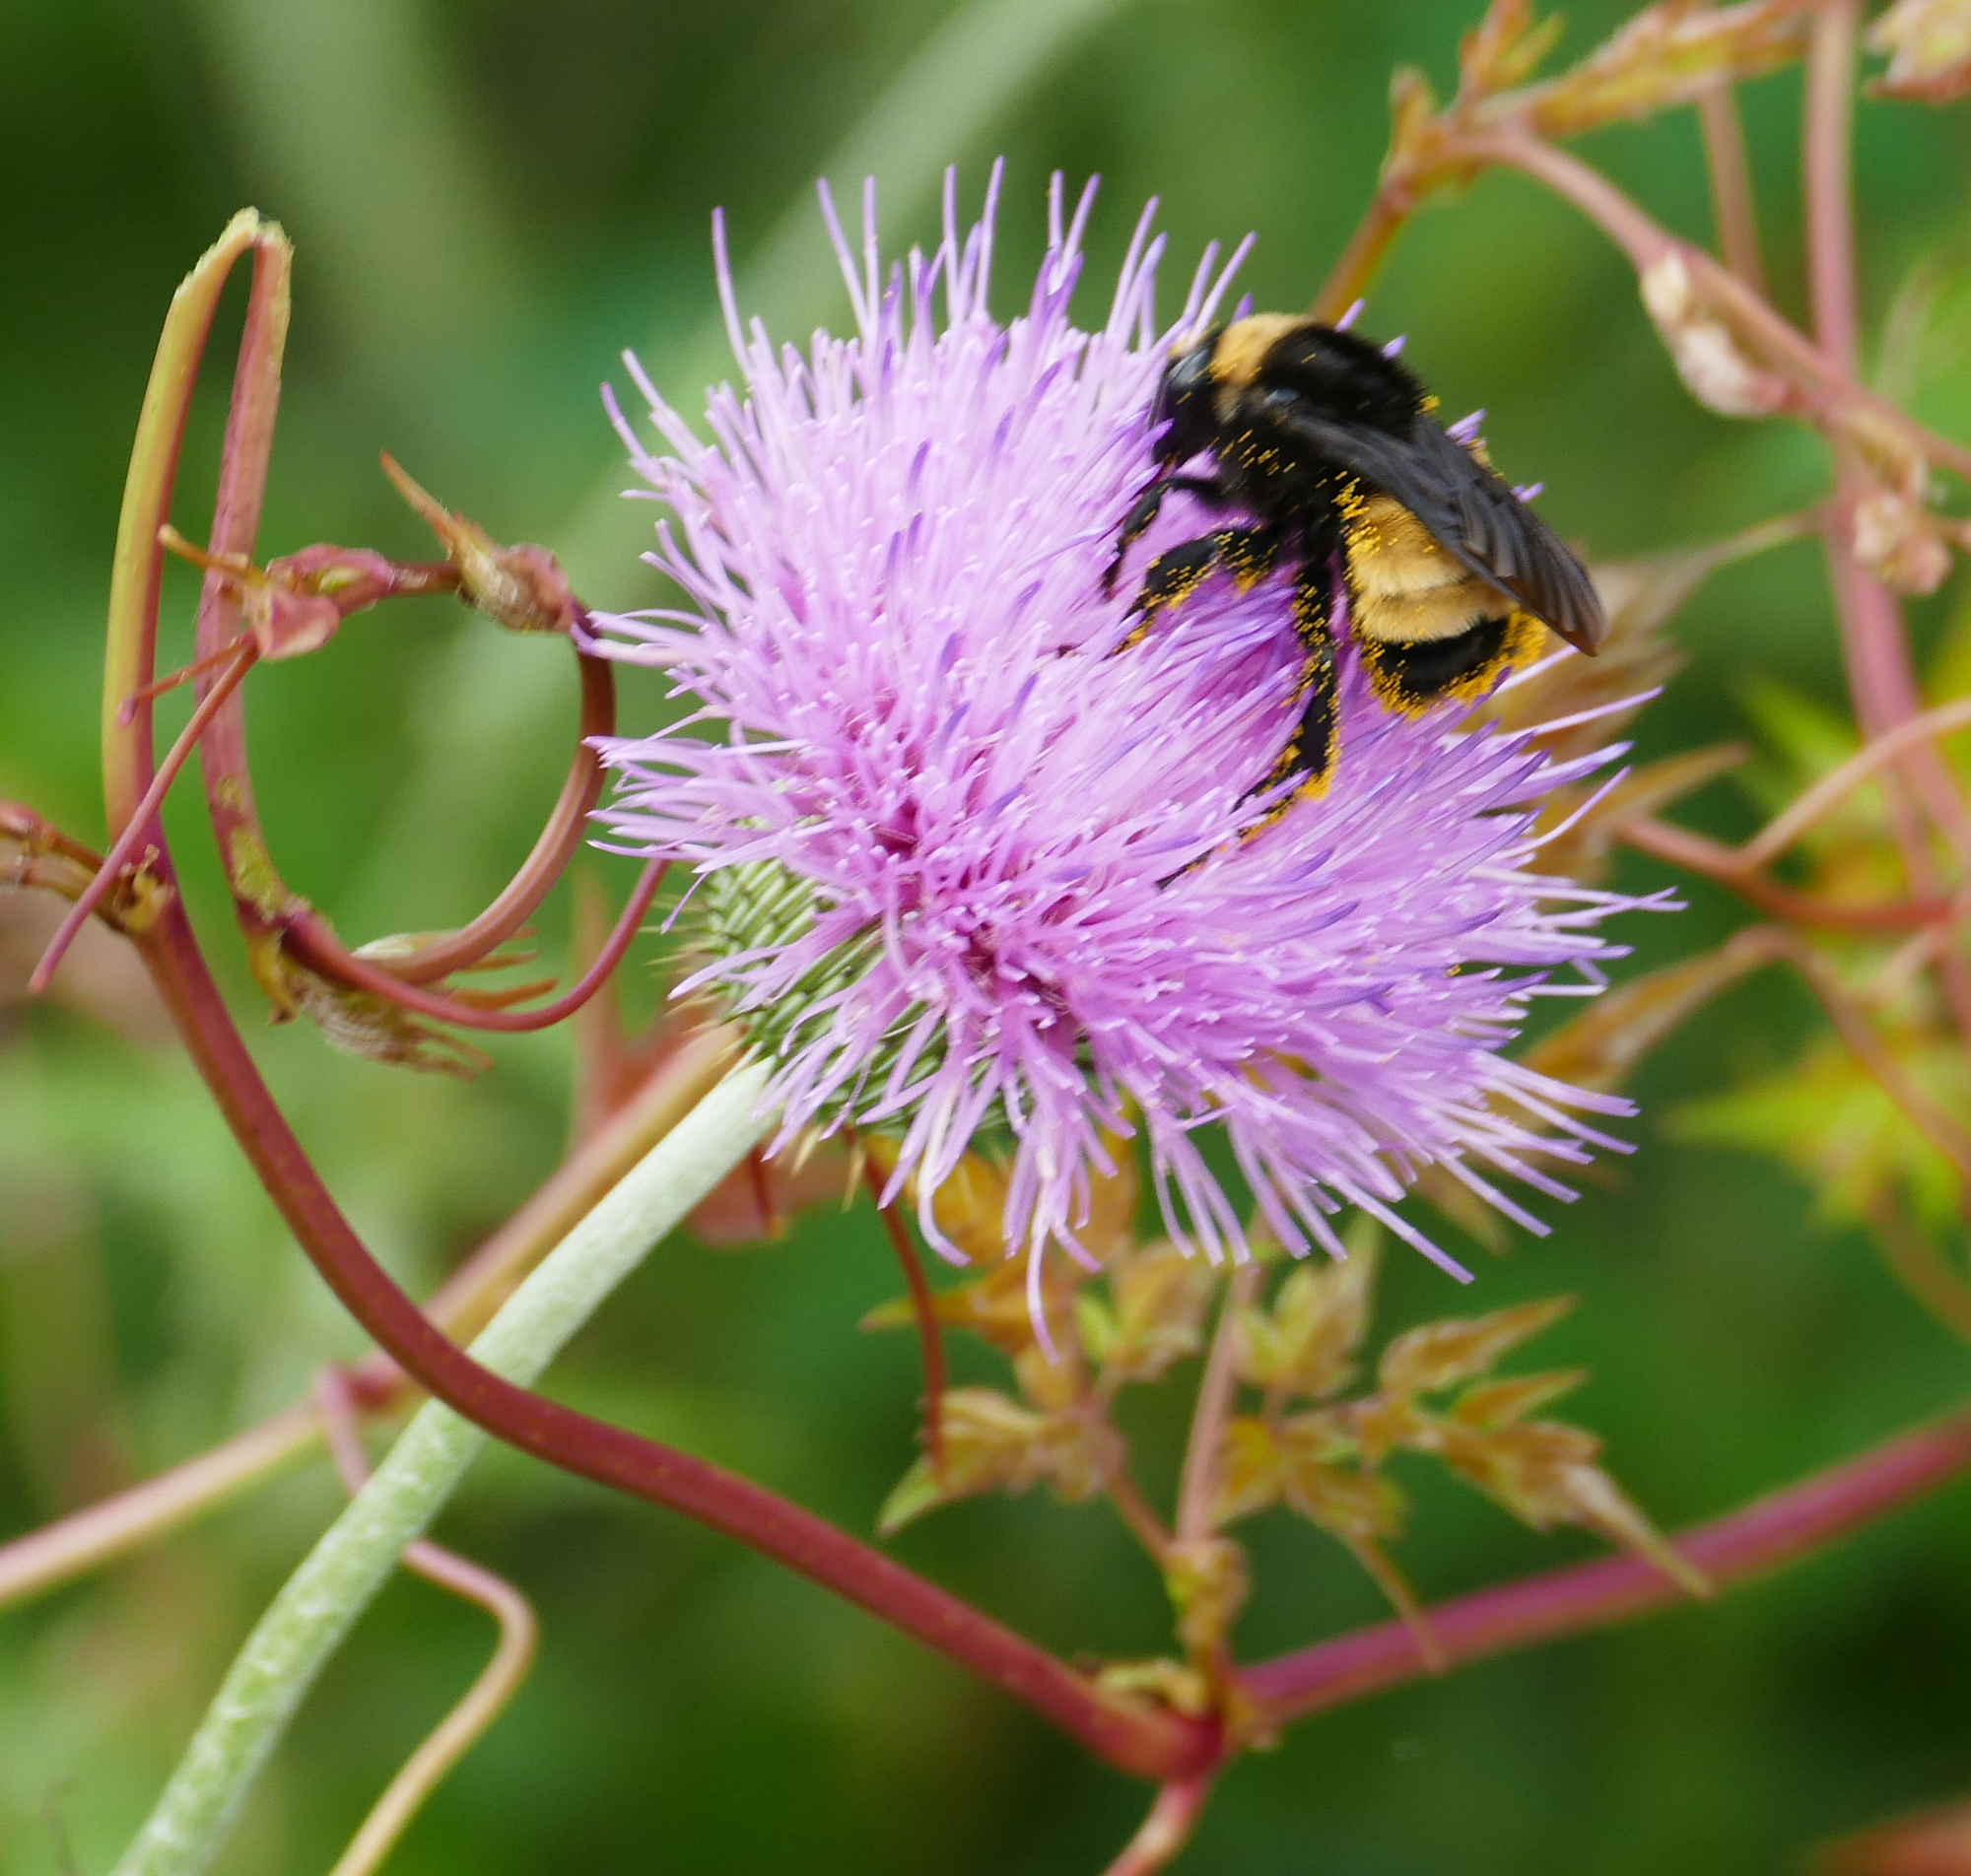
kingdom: Animalia
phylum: Arthropoda
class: Insecta
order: Hymenoptera
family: Apidae
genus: Bombus
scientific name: Bombus pensylvanicus
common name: Bumble bee
